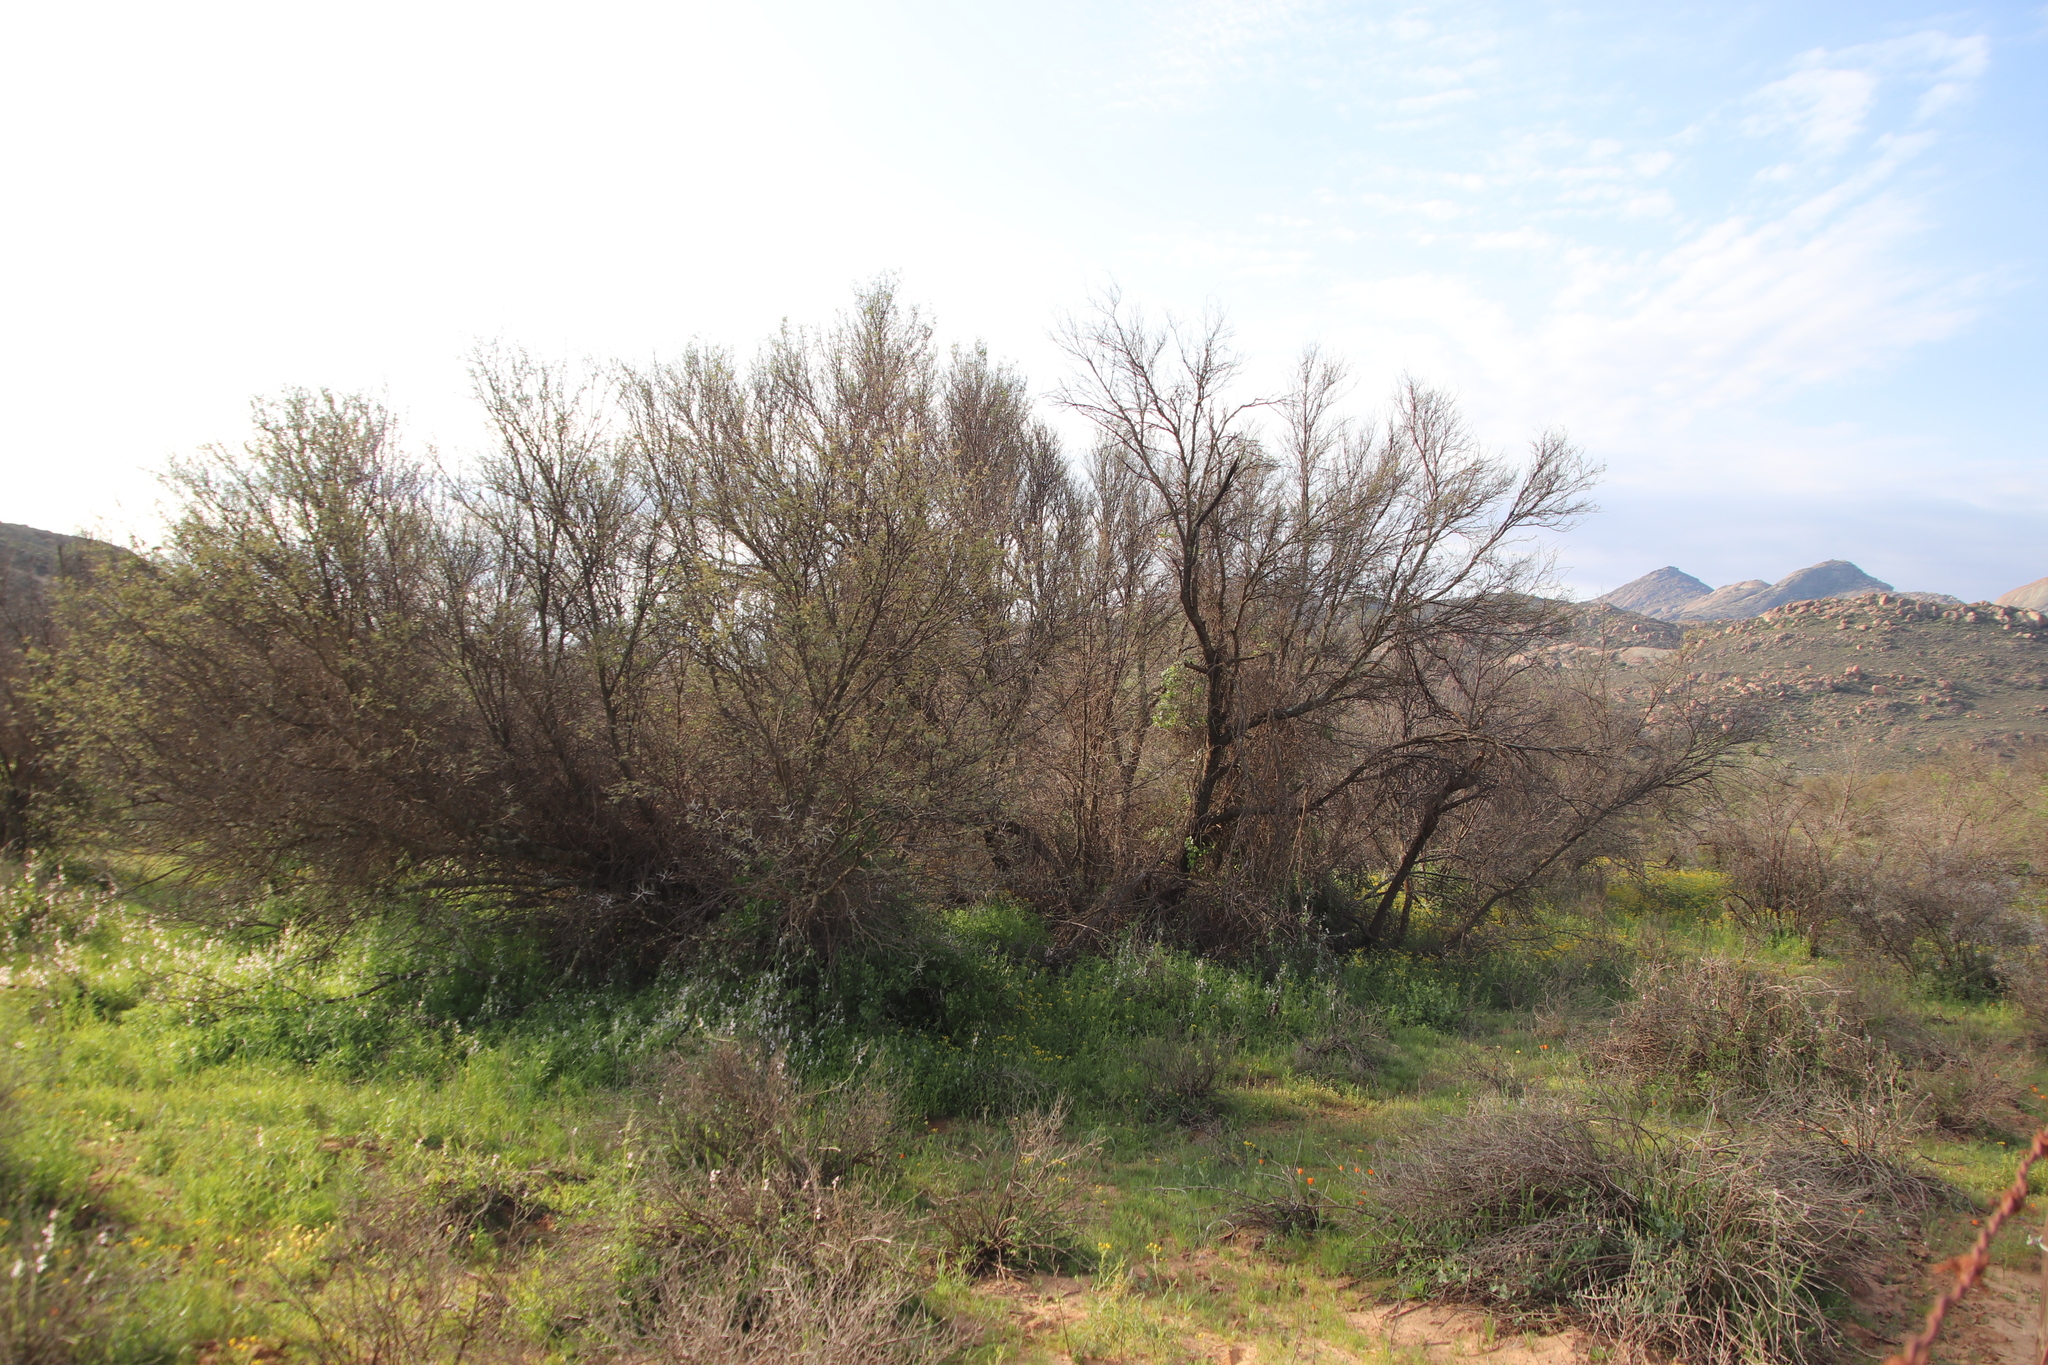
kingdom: Plantae
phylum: Tracheophyta
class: Magnoliopsida
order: Fabales
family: Fabaceae
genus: Vachellia
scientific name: Vachellia karroo
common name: Sweet thorn
